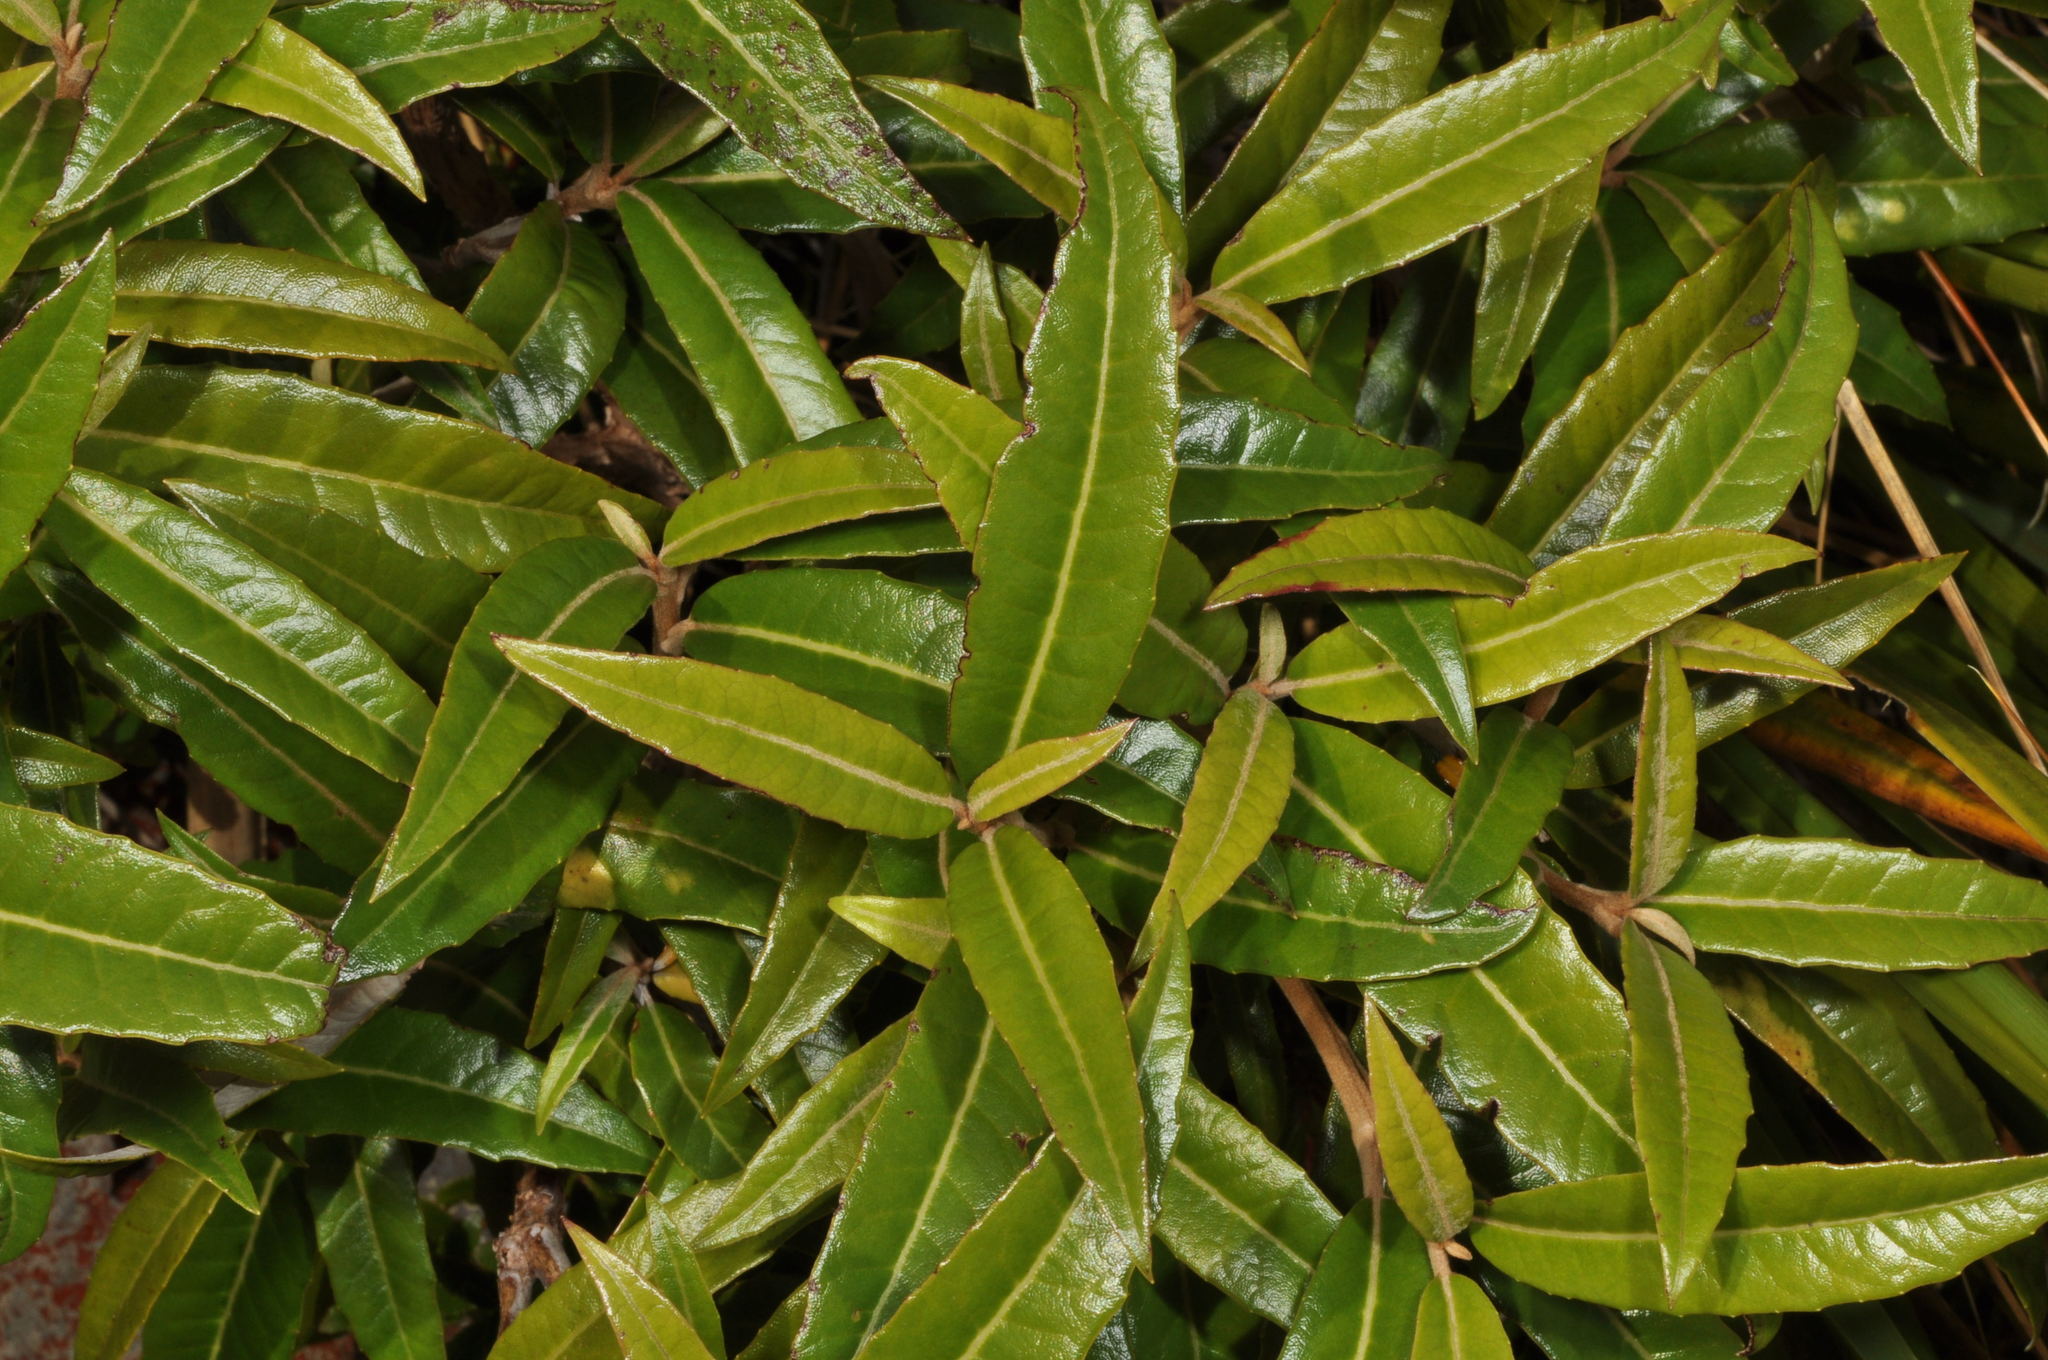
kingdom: Plantae
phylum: Tracheophyta
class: Magnoliopsida
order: Asterales
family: Asteraceae
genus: Olearia
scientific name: Olearia
